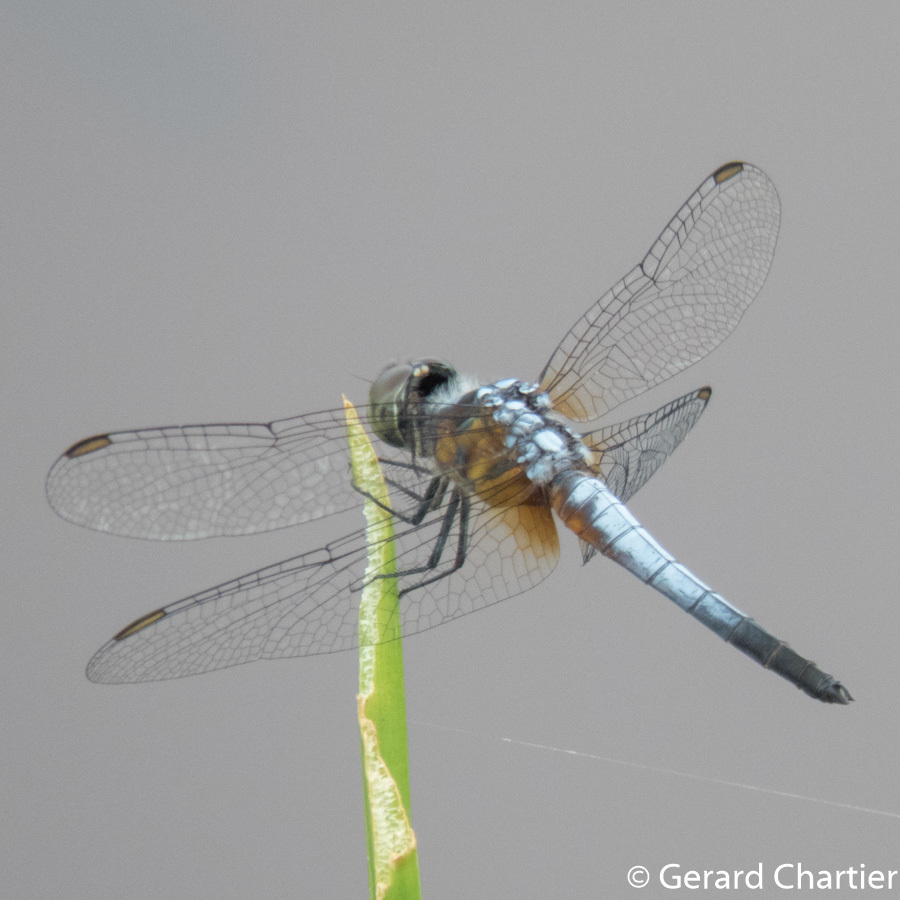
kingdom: Animalia
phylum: Arthropoda
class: Insecta
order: Odonata
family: Libellulidae
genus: Brachydiplax
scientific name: Brachydiplax chalybea
